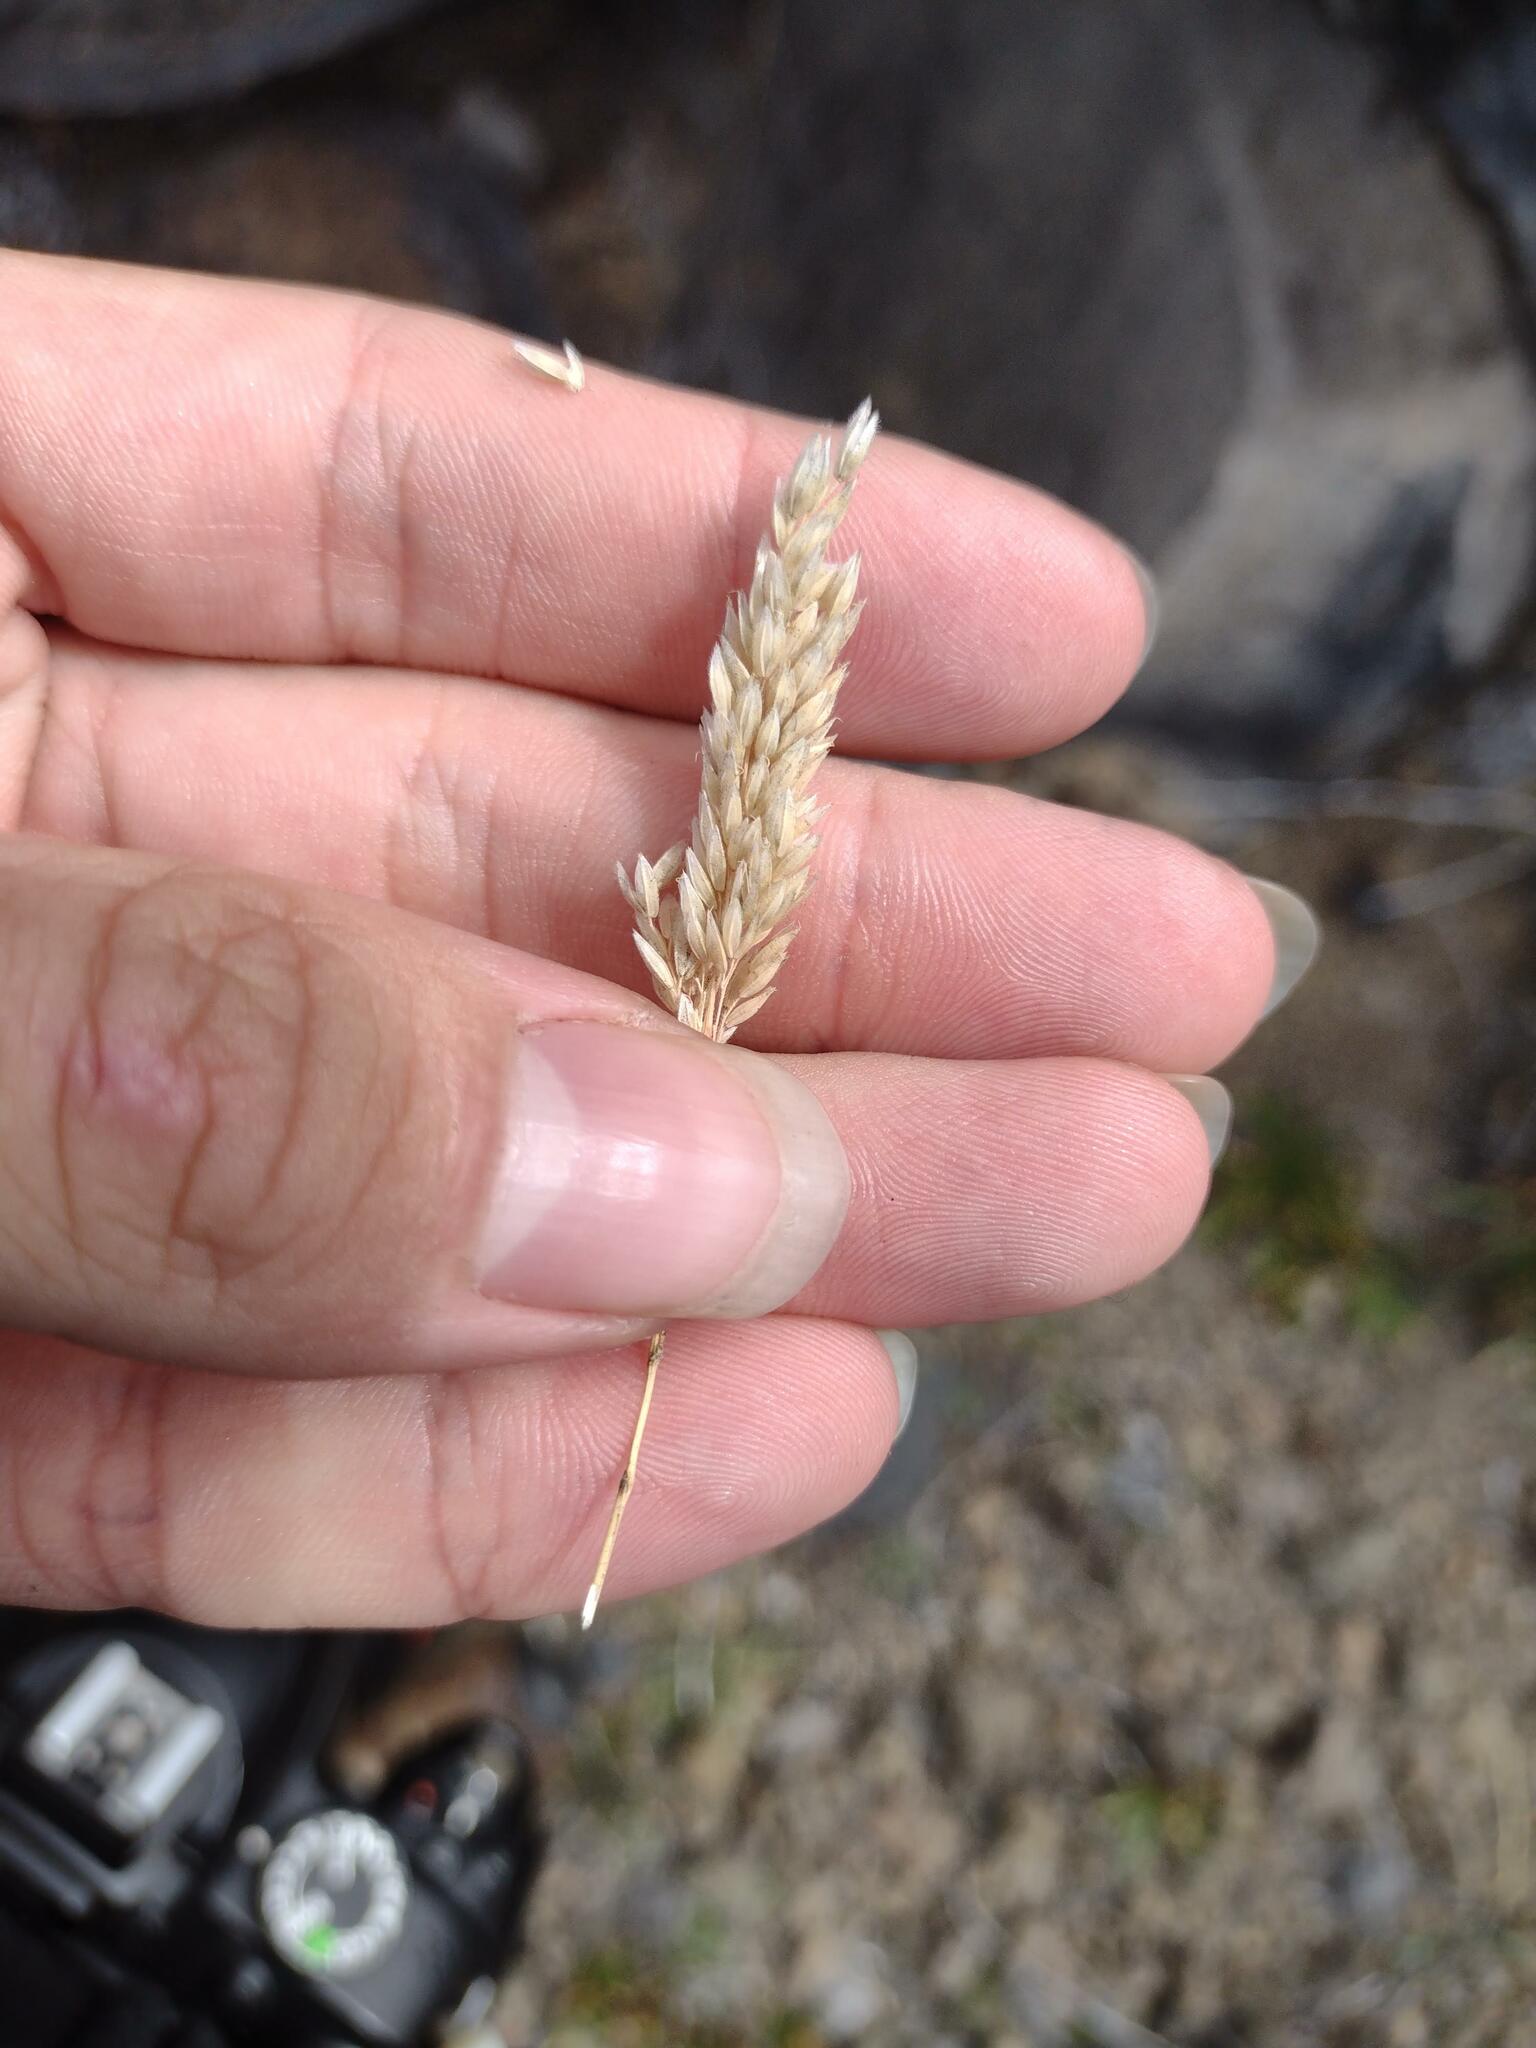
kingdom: Plantae
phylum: Tracheophyta
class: Liliopsida
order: Poales
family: Poaceae
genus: Holcus
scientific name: Holcus lanatus
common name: Yorkshire-fog
